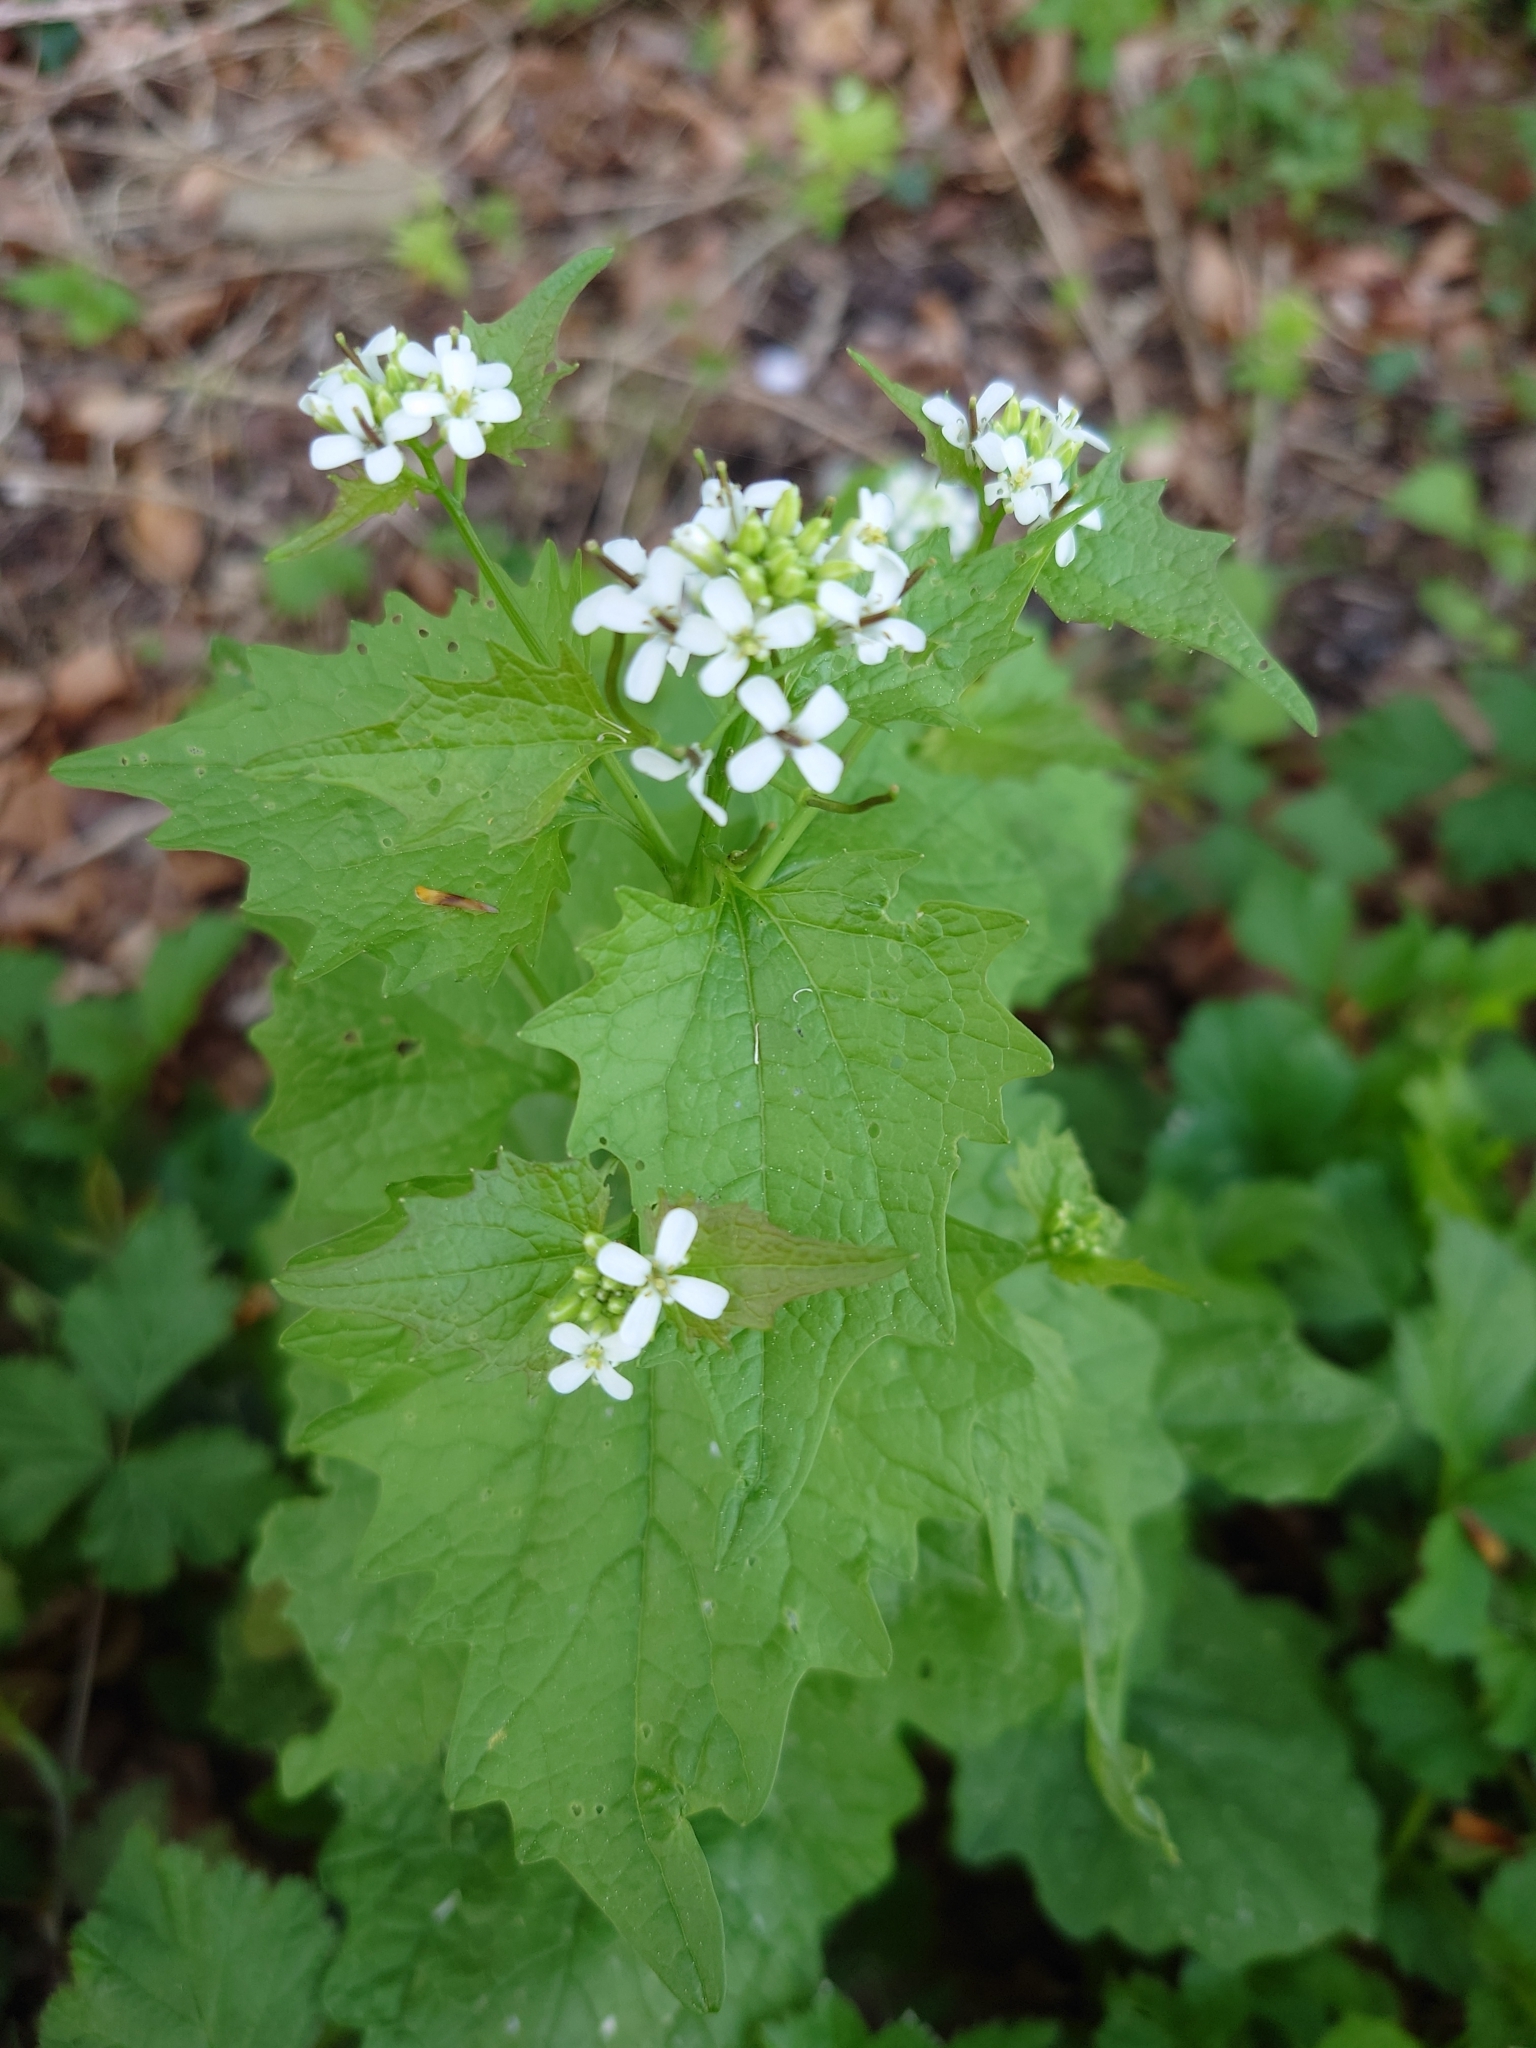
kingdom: Plantae
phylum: Tracheophyta
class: Magnoliopsida
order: Brassicales
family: Brassicaceae
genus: Alliaria
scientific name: Alliaria petiolata
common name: Garlic mustard
